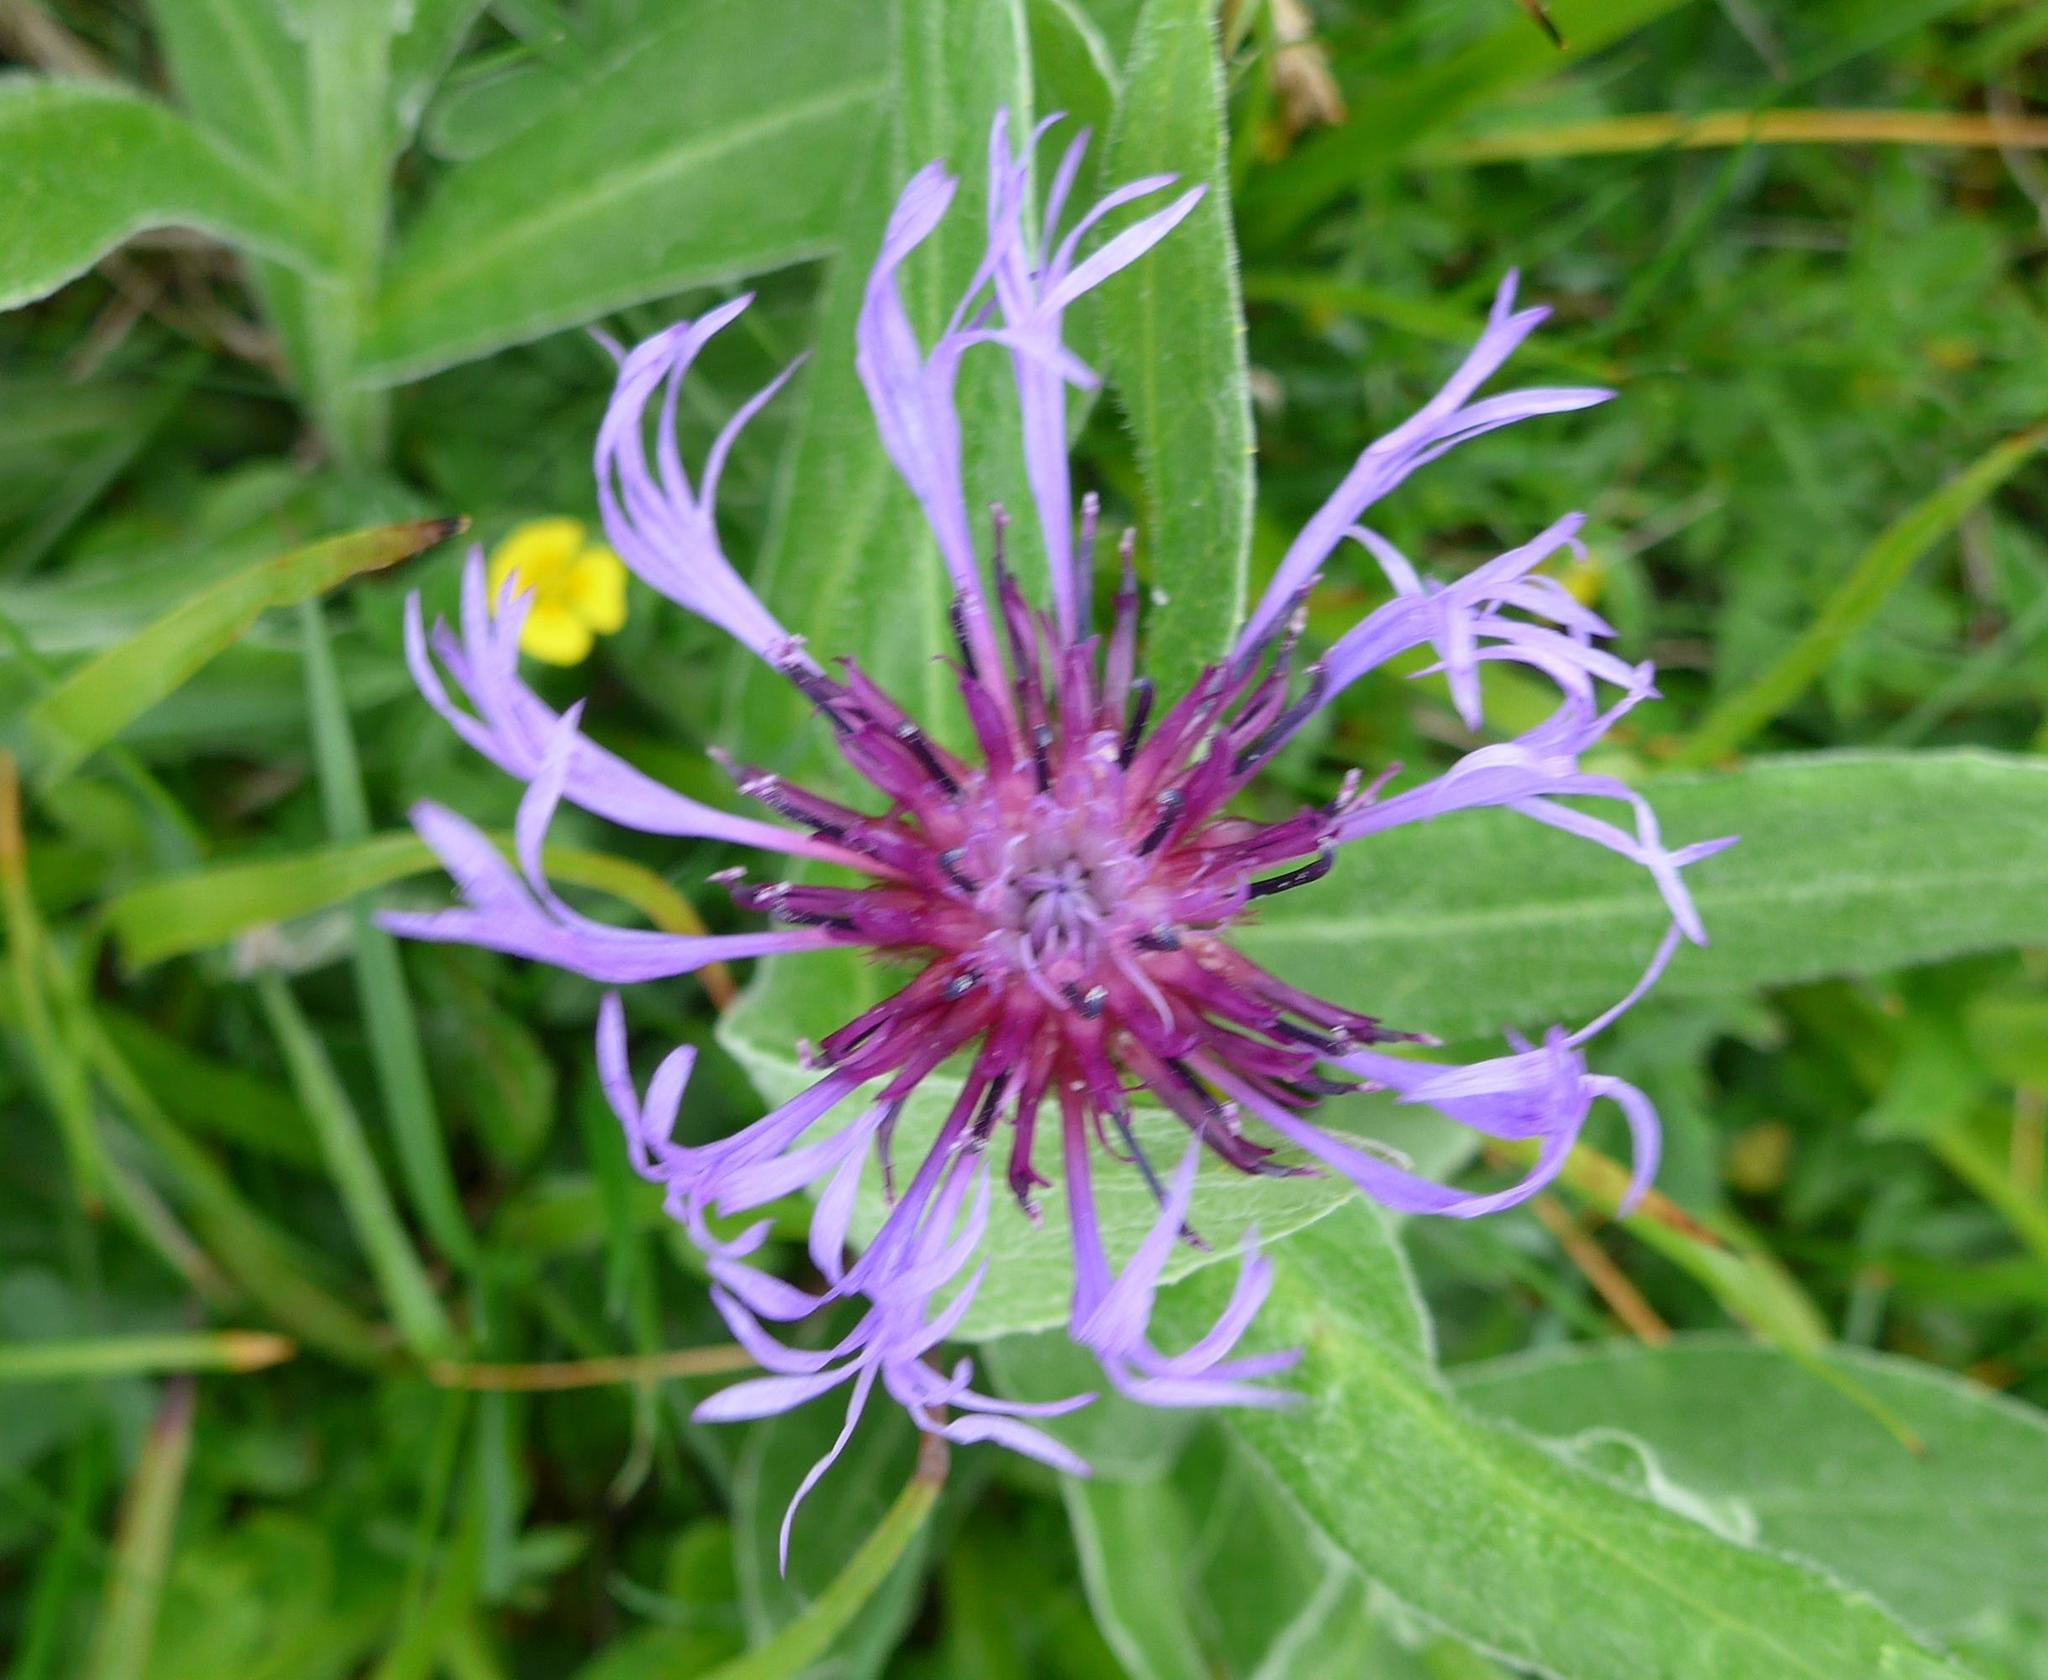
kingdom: Plantae
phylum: Tracheophyta
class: Magnoliopsida
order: Asterales
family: Asteraceae
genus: Centaurea
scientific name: Centaurea montana
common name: Perennial cornflower
